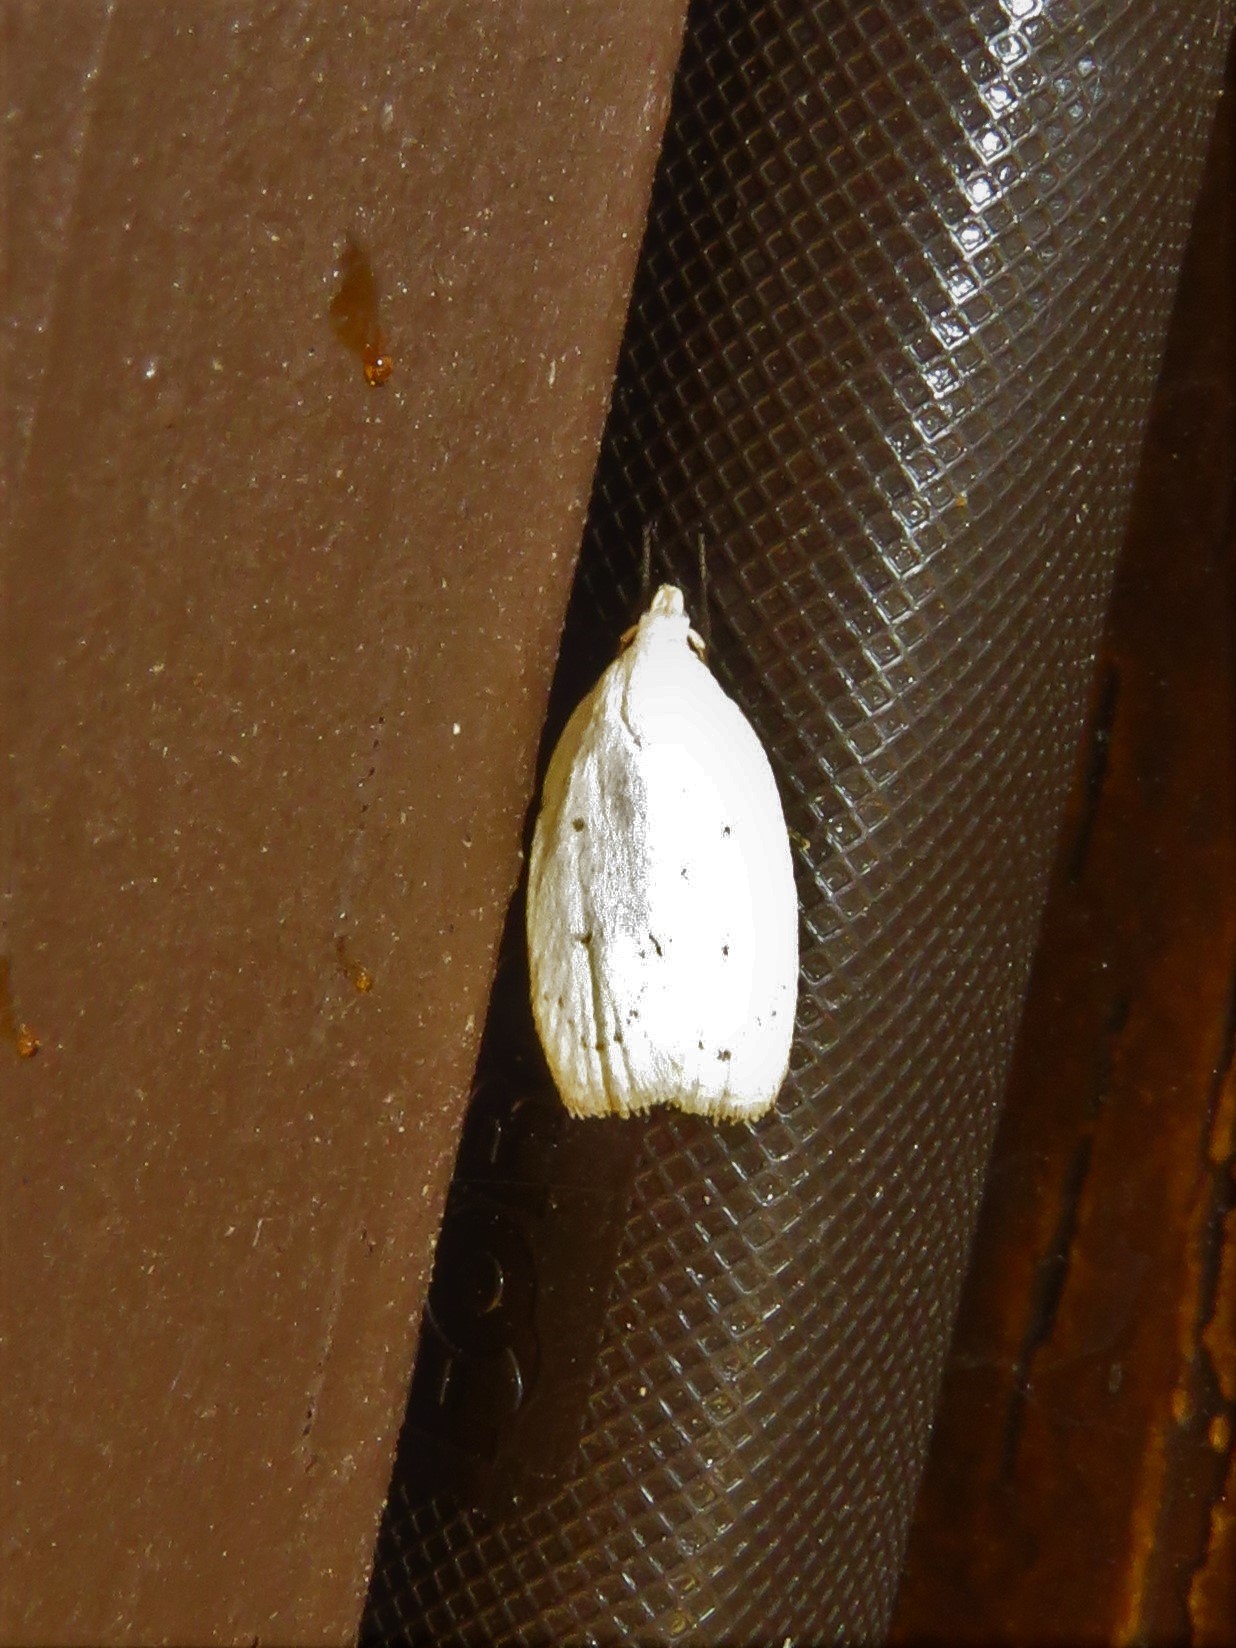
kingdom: Animalia
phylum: Arthropoda
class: Insecta
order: Lepidoptera
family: Oecophoridae
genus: Inga
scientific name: Inga cretacea
